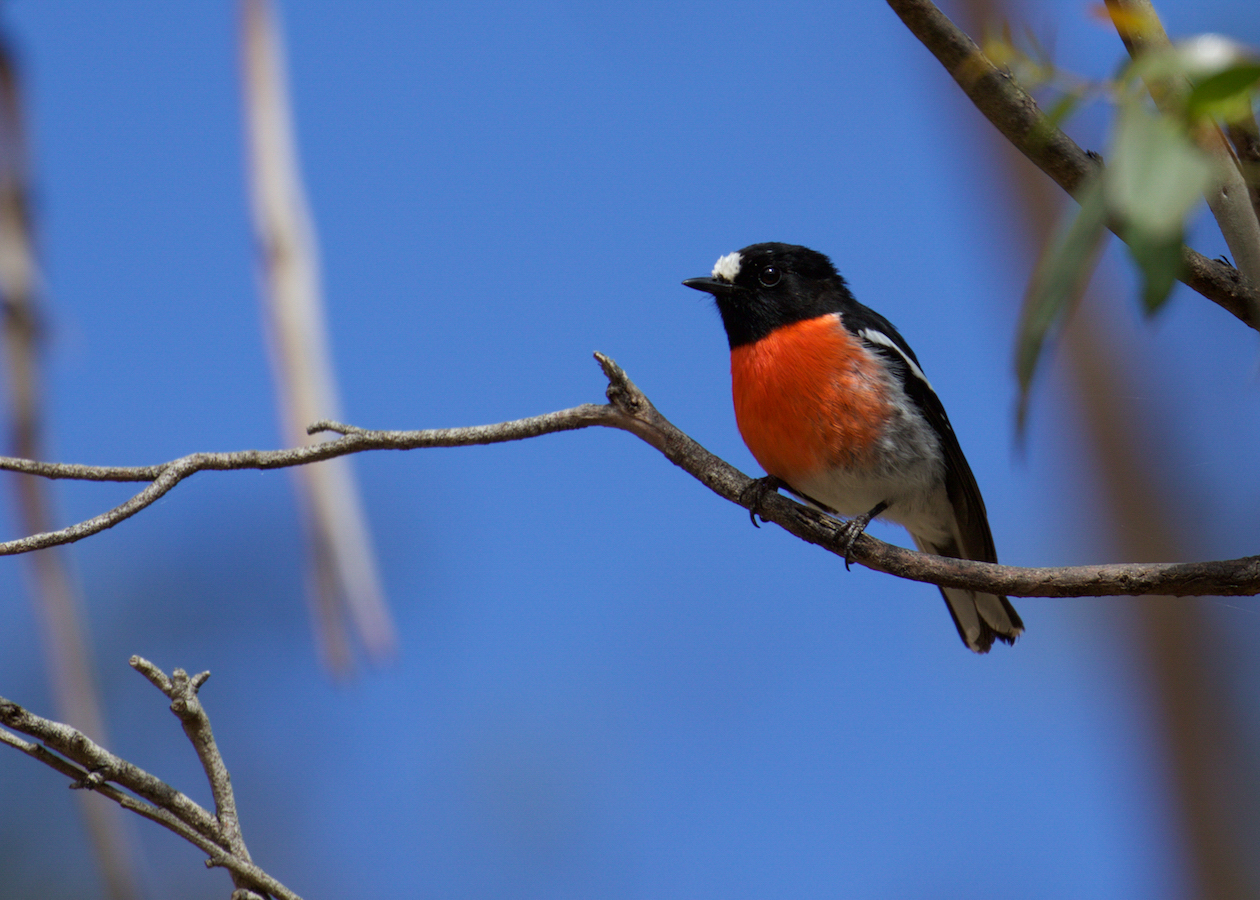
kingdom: Animalia
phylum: Chordata
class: Aves
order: Passeriformes
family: Petroicidae
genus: Petroica
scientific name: Petroica boodang
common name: Scarlet robin
